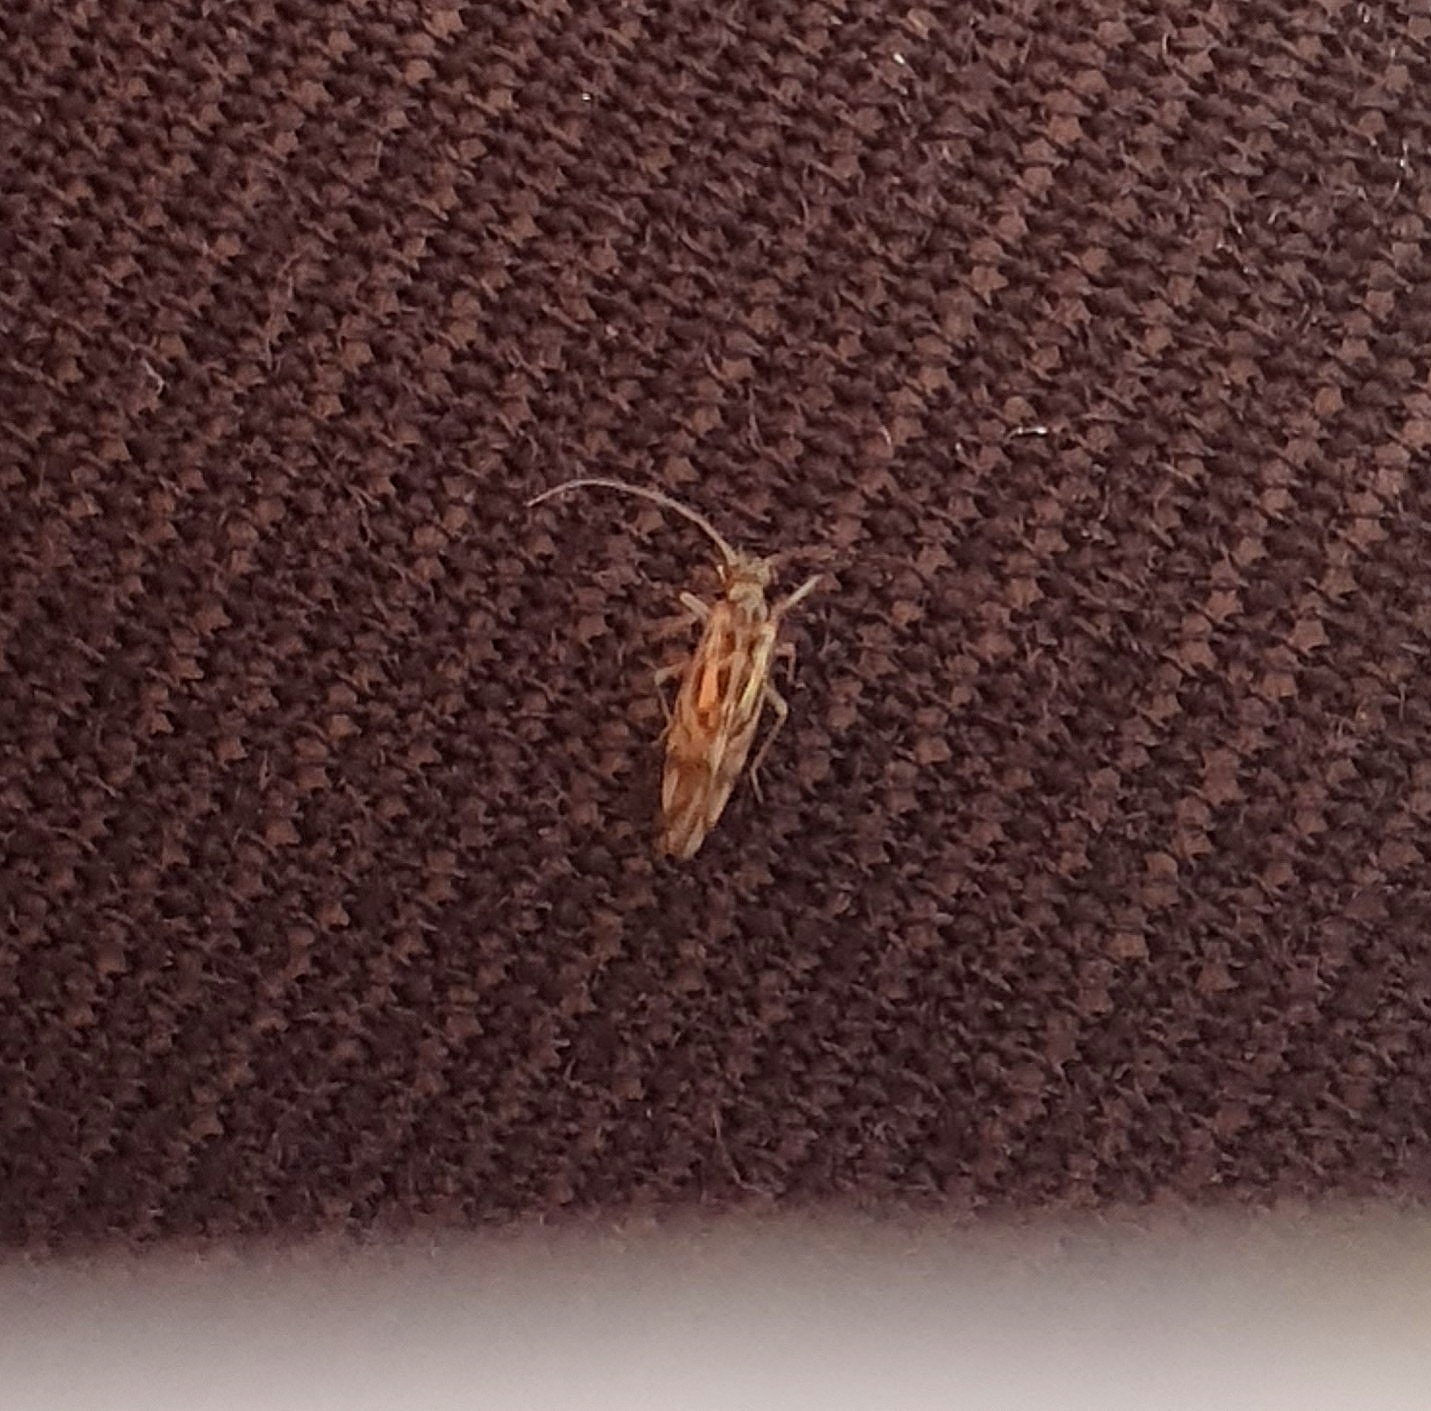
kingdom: Animalia
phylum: Arthropoda
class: Insecta
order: Psocodea
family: Stenopsocidae
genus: Graphopsocus
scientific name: Graphopsocus cruciatus
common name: Lizard bark louse
